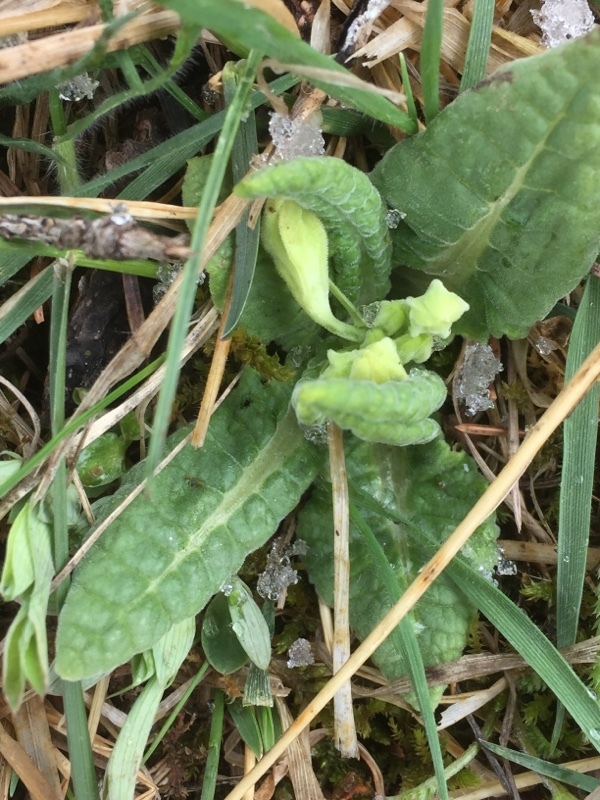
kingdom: Plantae
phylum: Tracheophyta
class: Magnoliopsida
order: Ericales
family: Primulaceae
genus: Primula
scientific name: Primula veris
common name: Cowslip
